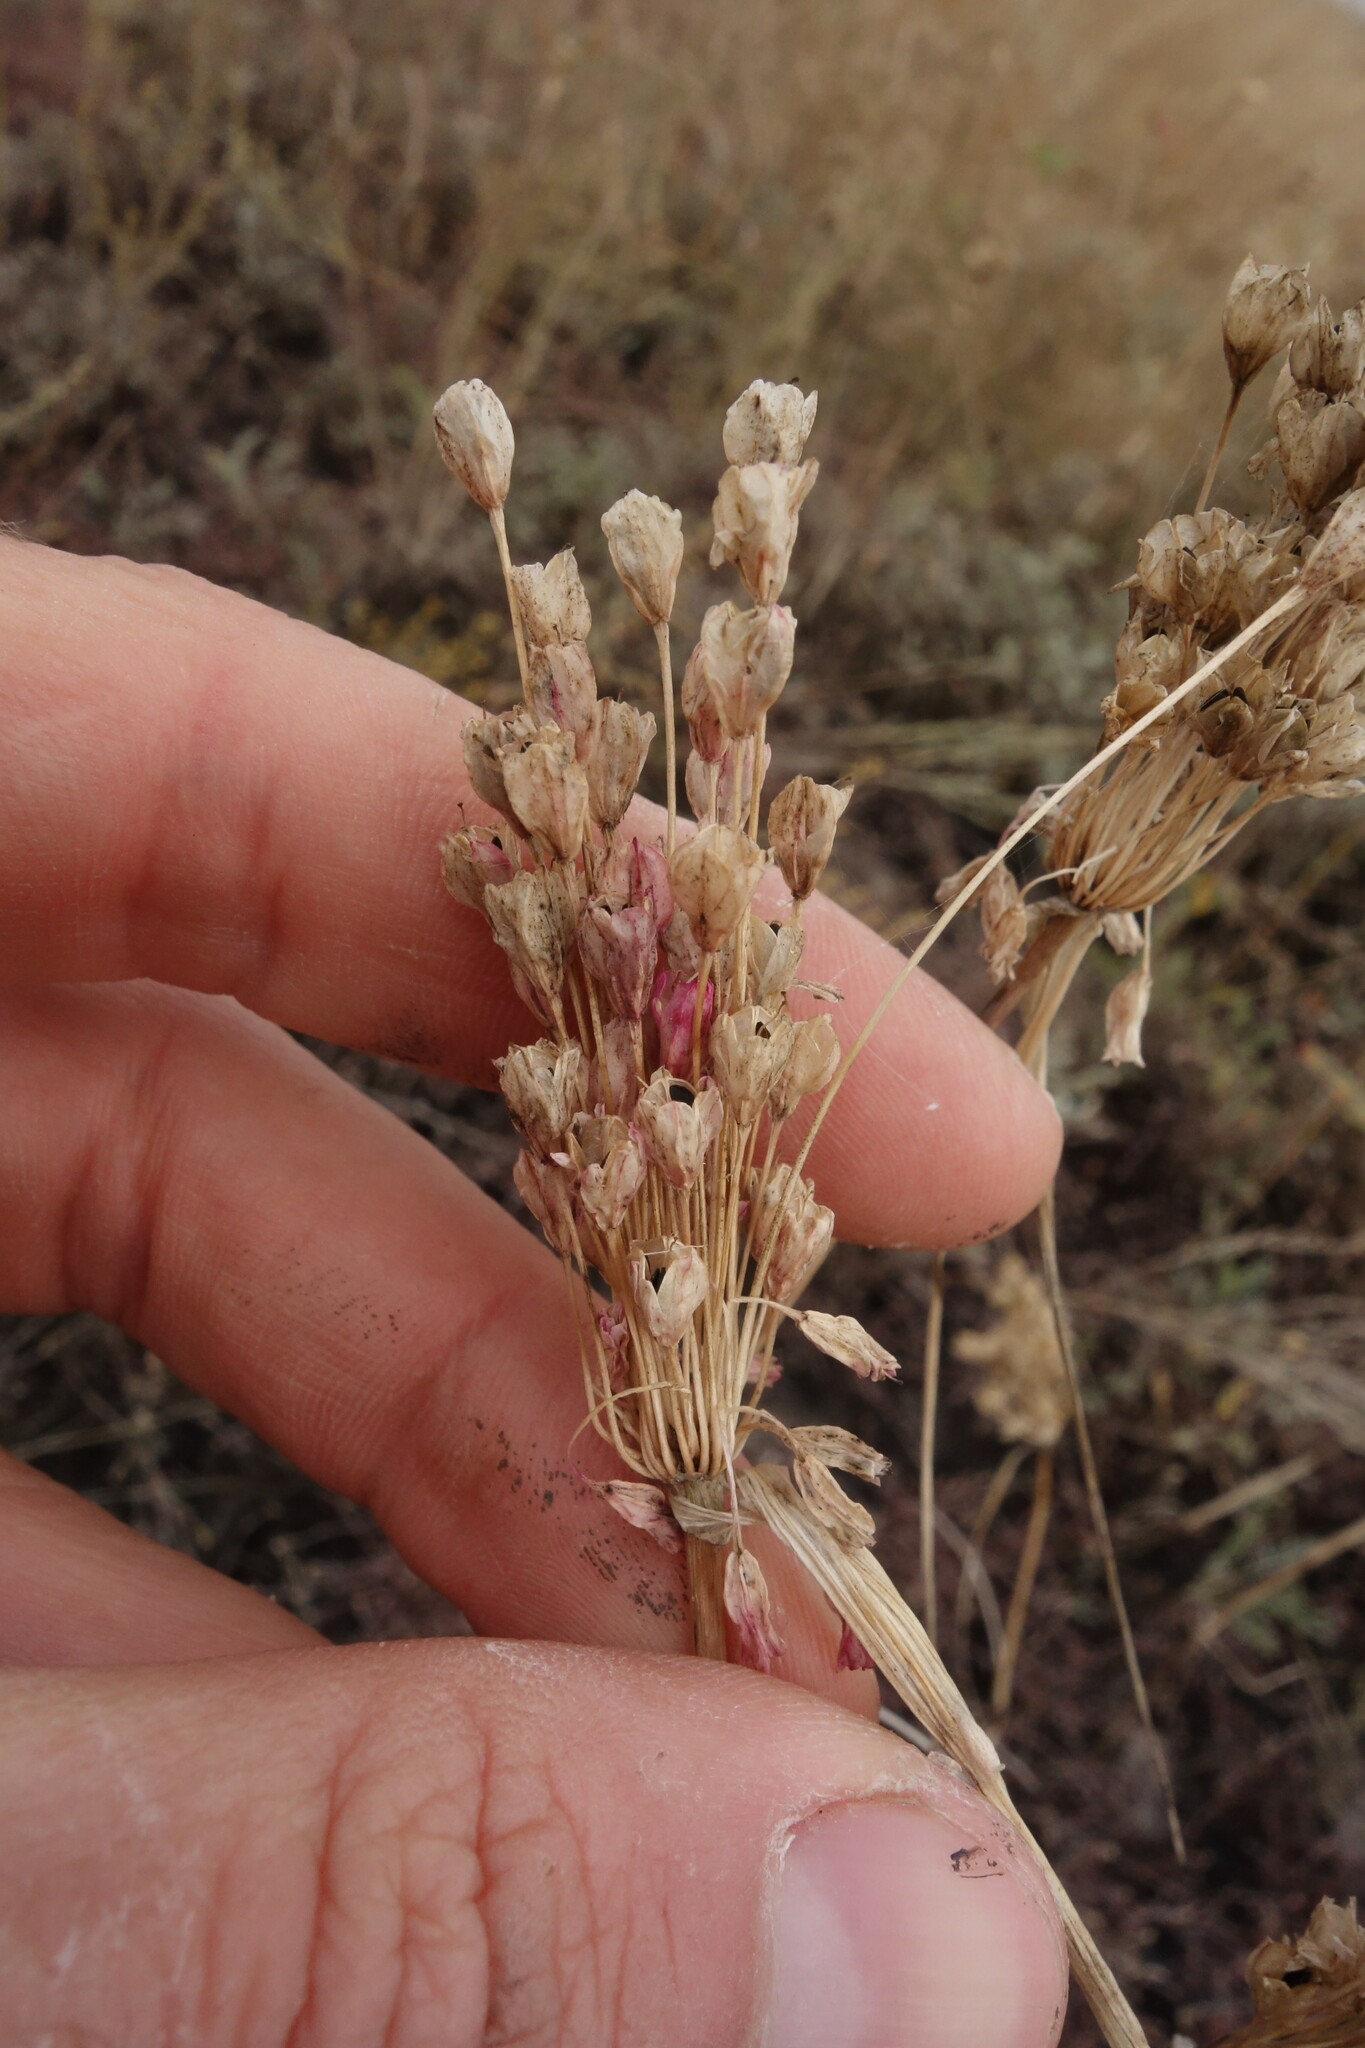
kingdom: Plantae
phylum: Tracheophyta
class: Liliopsida
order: Asparagales
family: Amaryllidaceae
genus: Allium
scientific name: Allium praescissum
